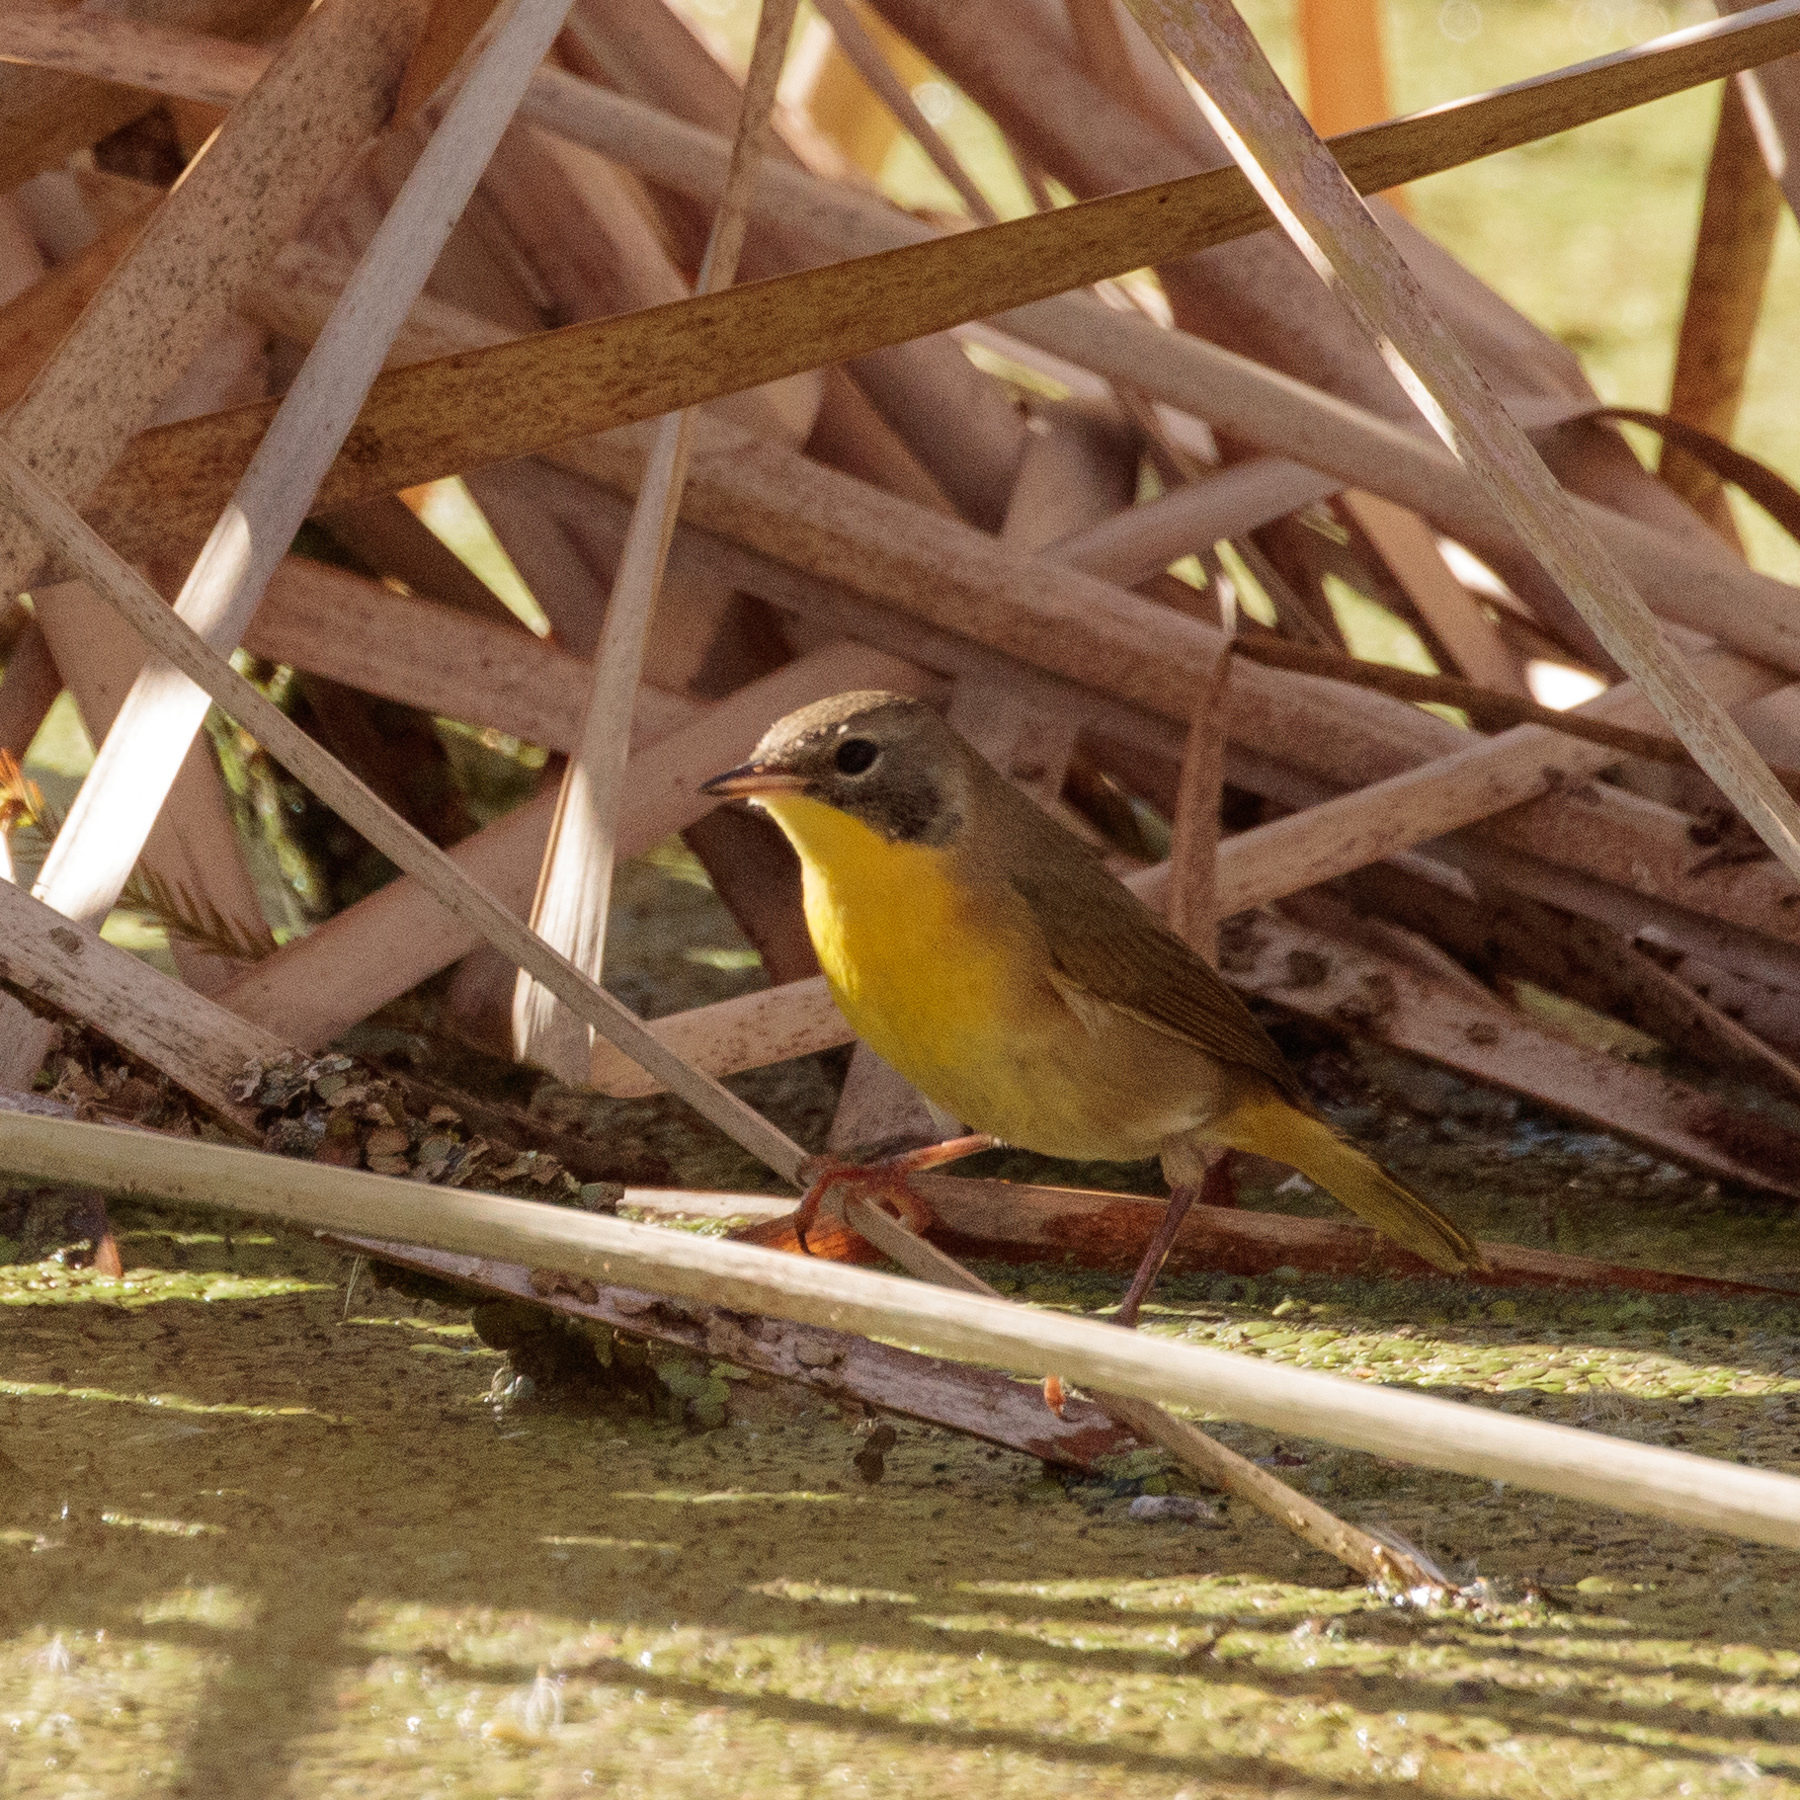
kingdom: Animalia
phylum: Chordata
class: Aves
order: Passeriformes
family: Parulidae
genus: Geothlypis
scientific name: Geothlypis trichas
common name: Common yellowthroat
